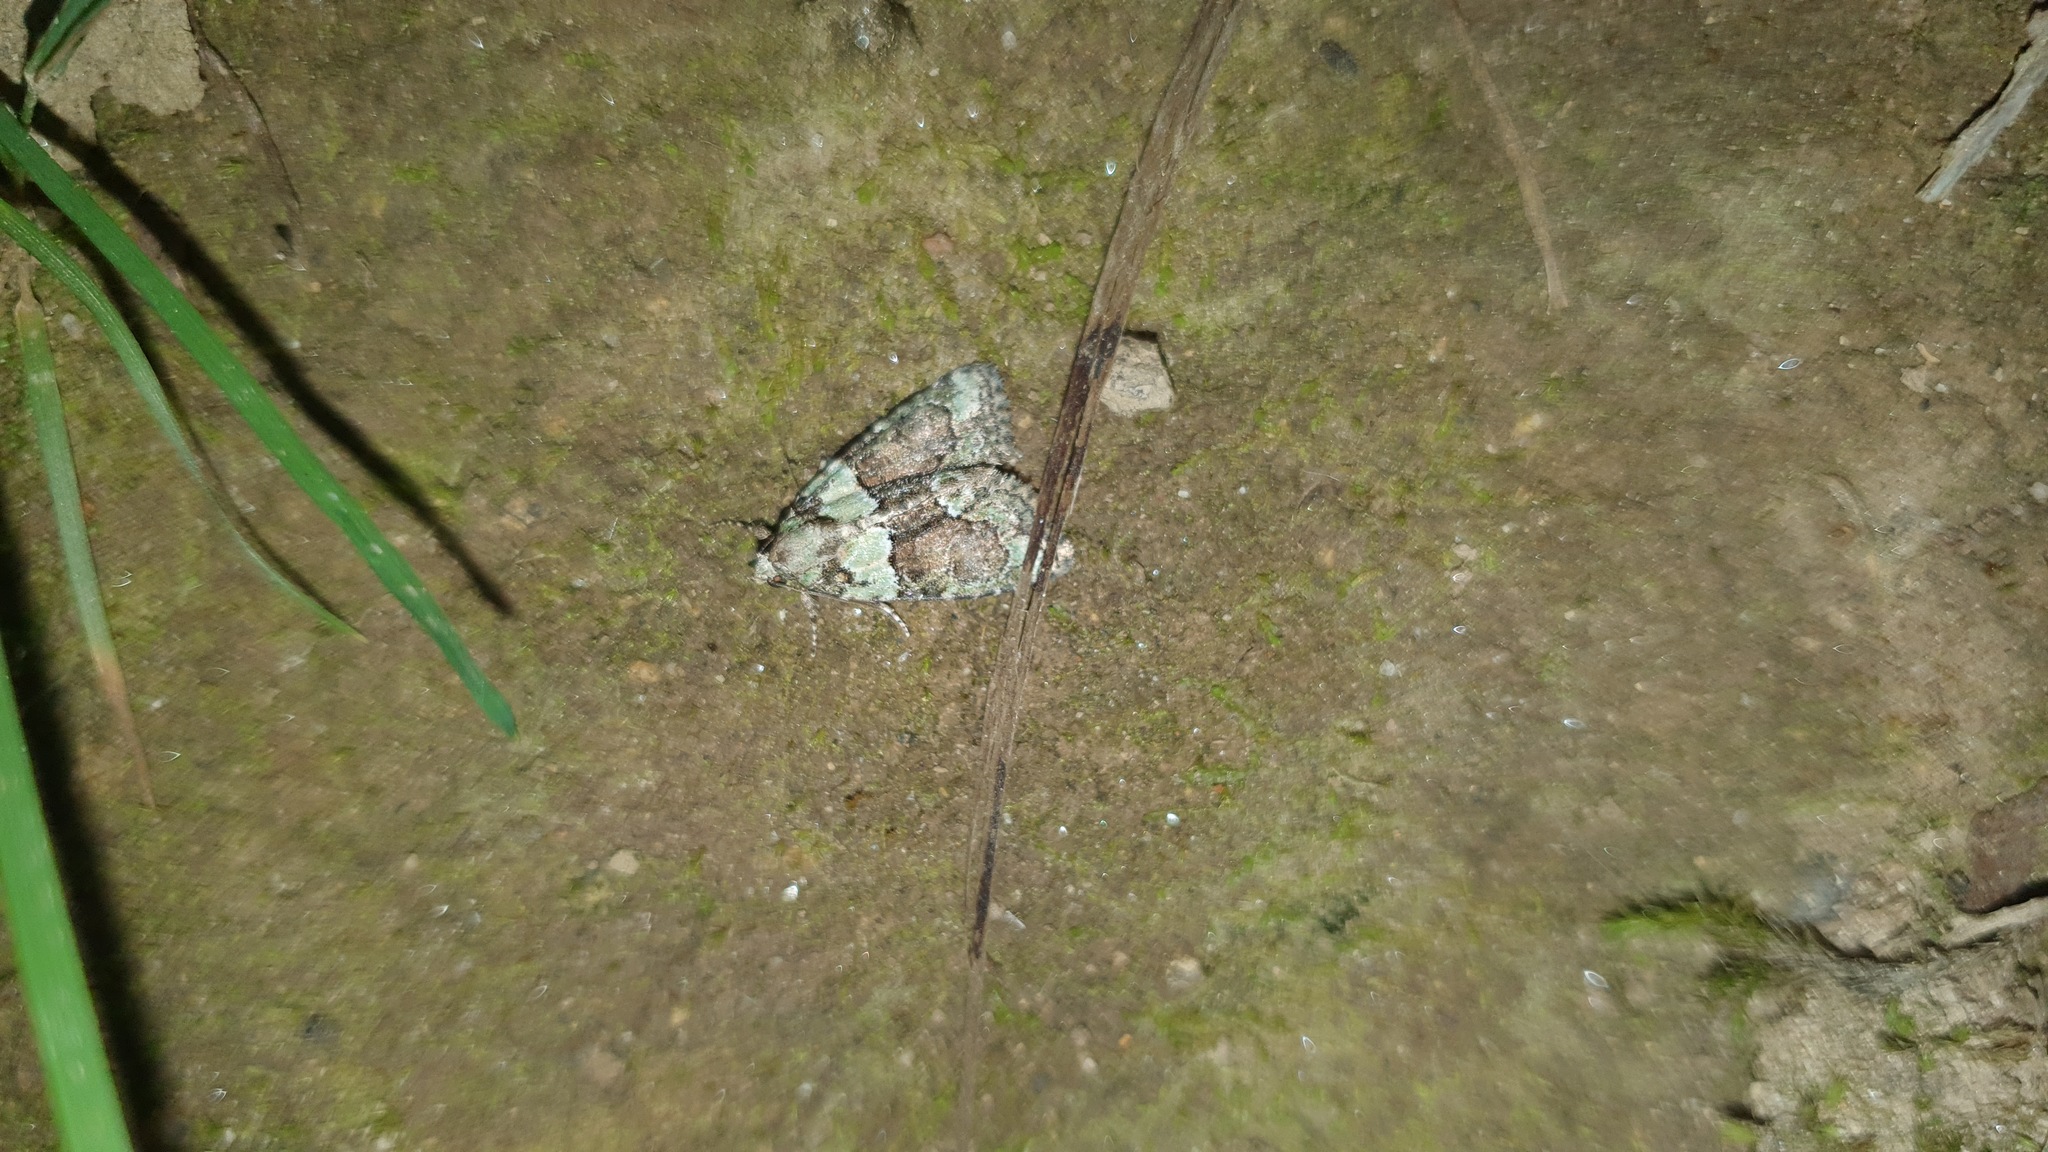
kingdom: Animalia
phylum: Arthropoda
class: Insecta
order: Lepidoptera
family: Noctuidae
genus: Cryphia
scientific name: Cryphia algae
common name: Tree-lichen beauty
